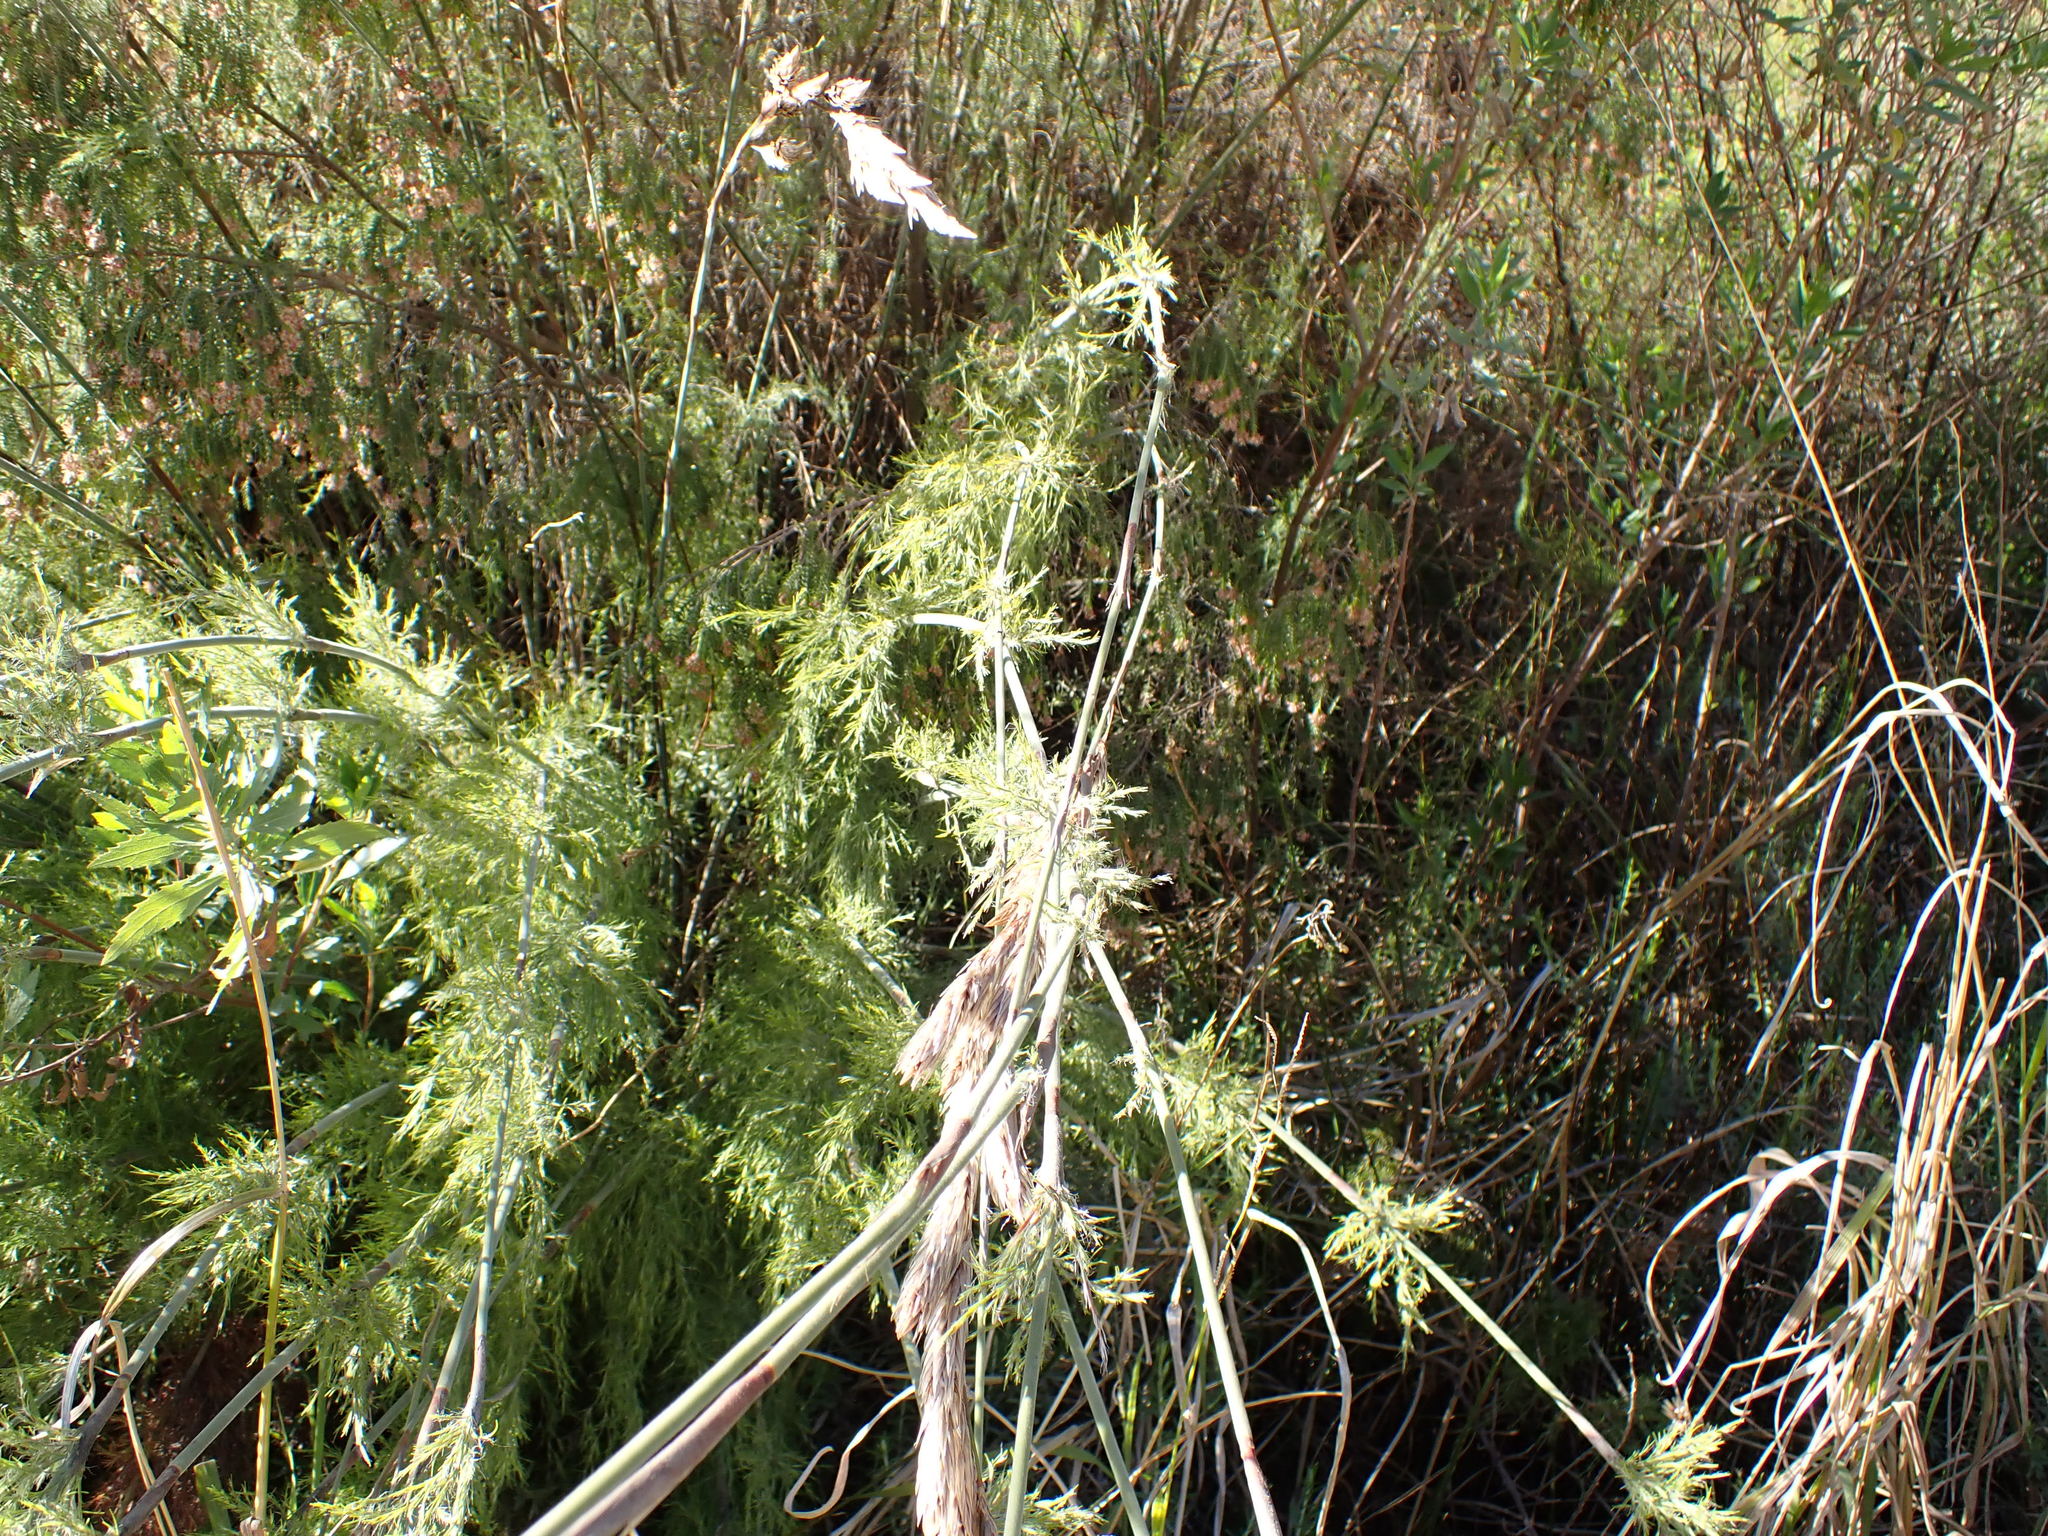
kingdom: Plantae
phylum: Tracheophyta
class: Liliopsida
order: Poales
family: Restionaceae
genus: Thamnochortus
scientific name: Thamnochortus cinereus
